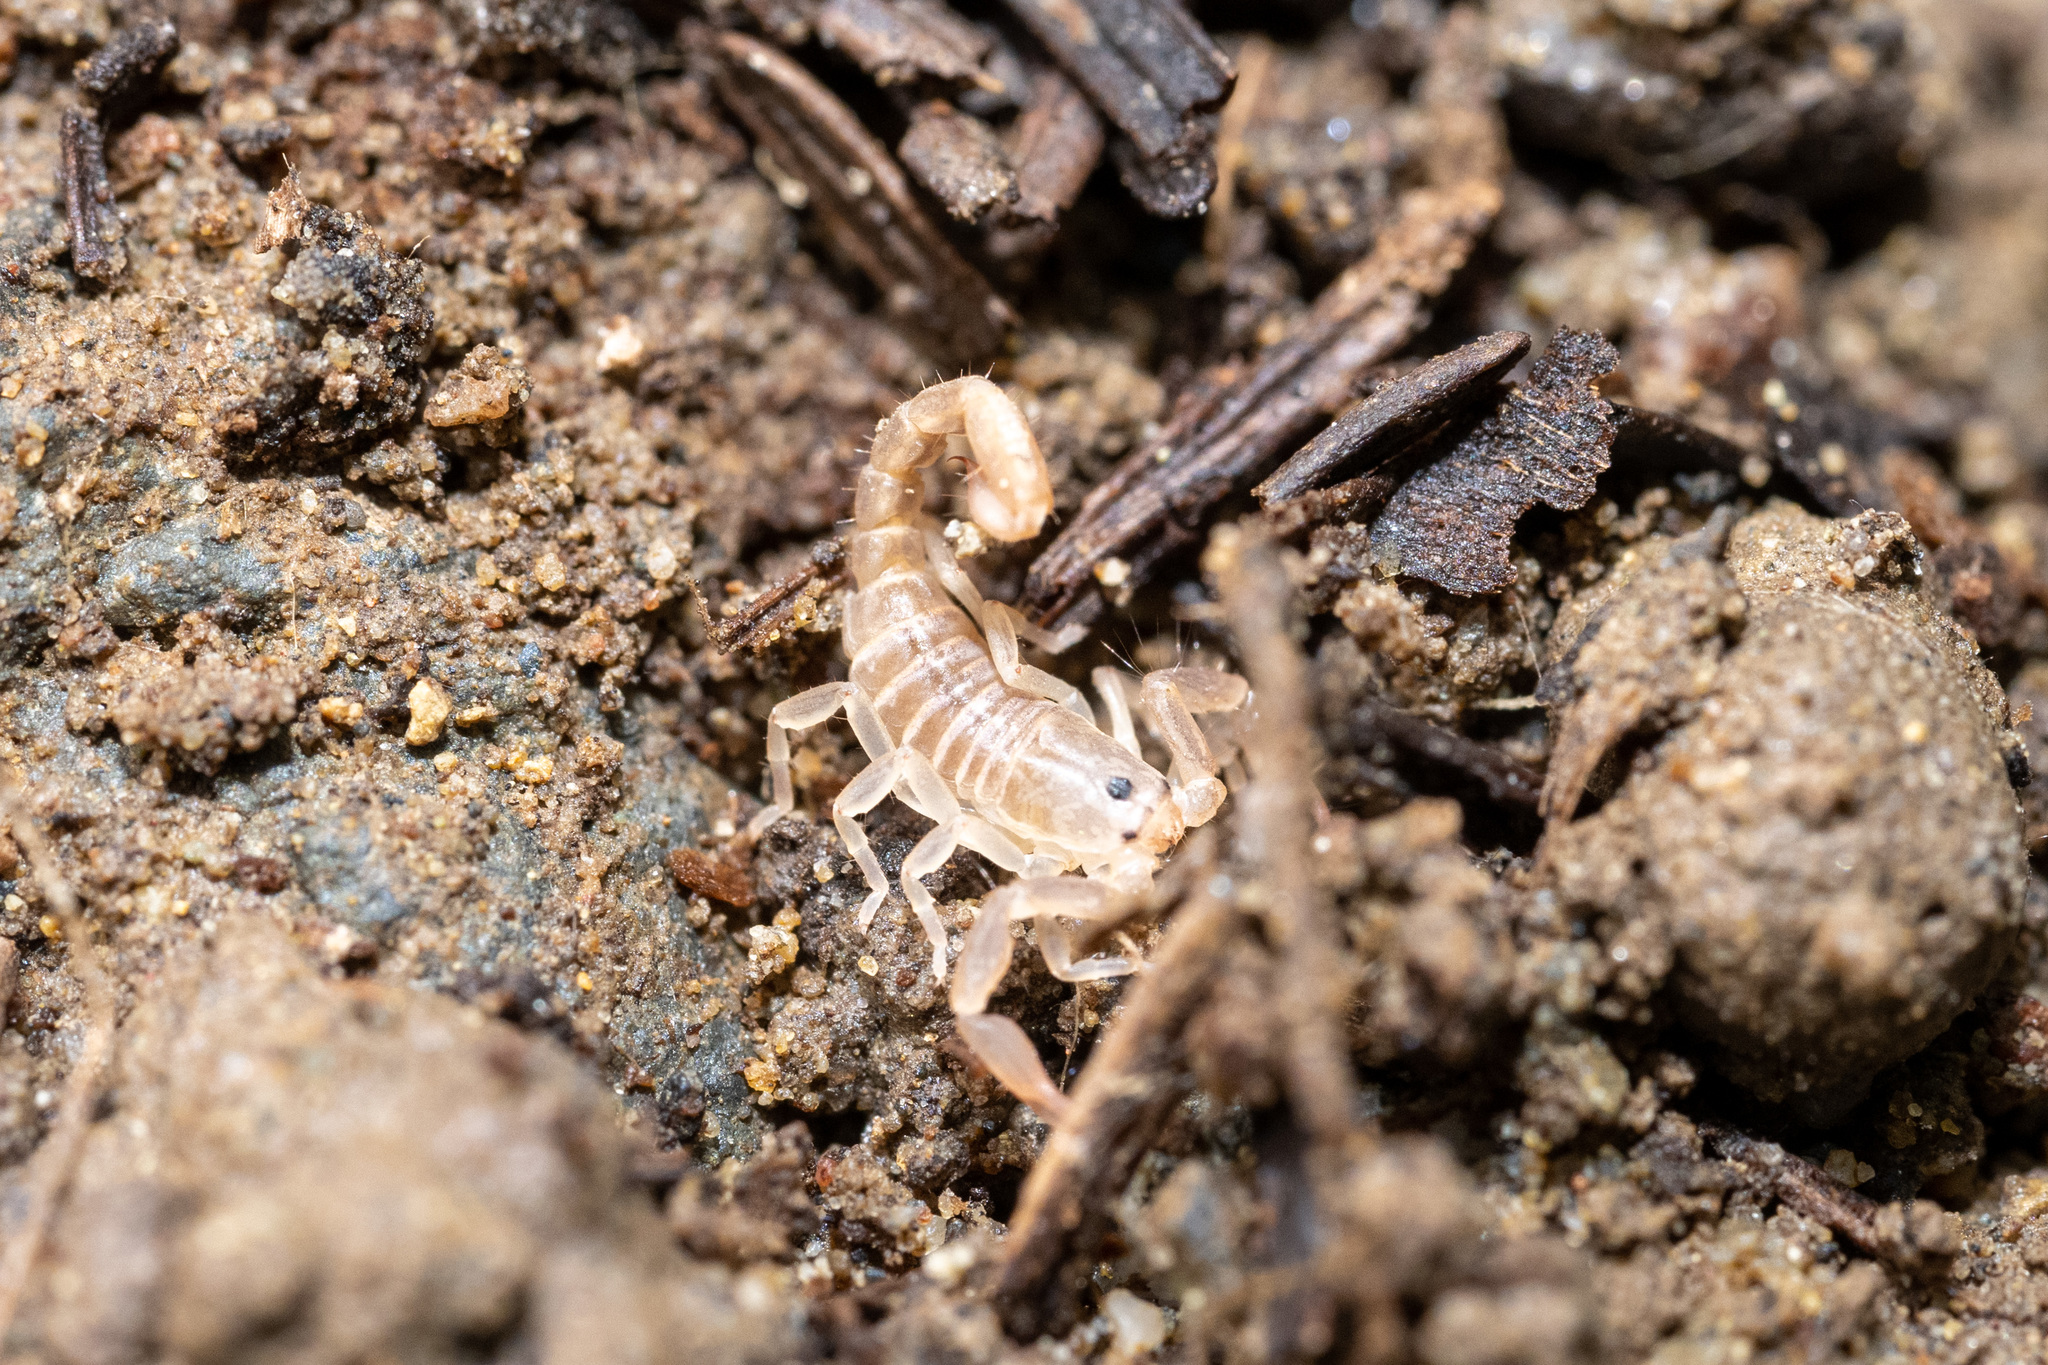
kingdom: Animalia
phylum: Arthropoda
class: Arachnida
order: Scorpiones
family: Chactidae
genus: Uroctonus
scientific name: Uroctonus mordax
